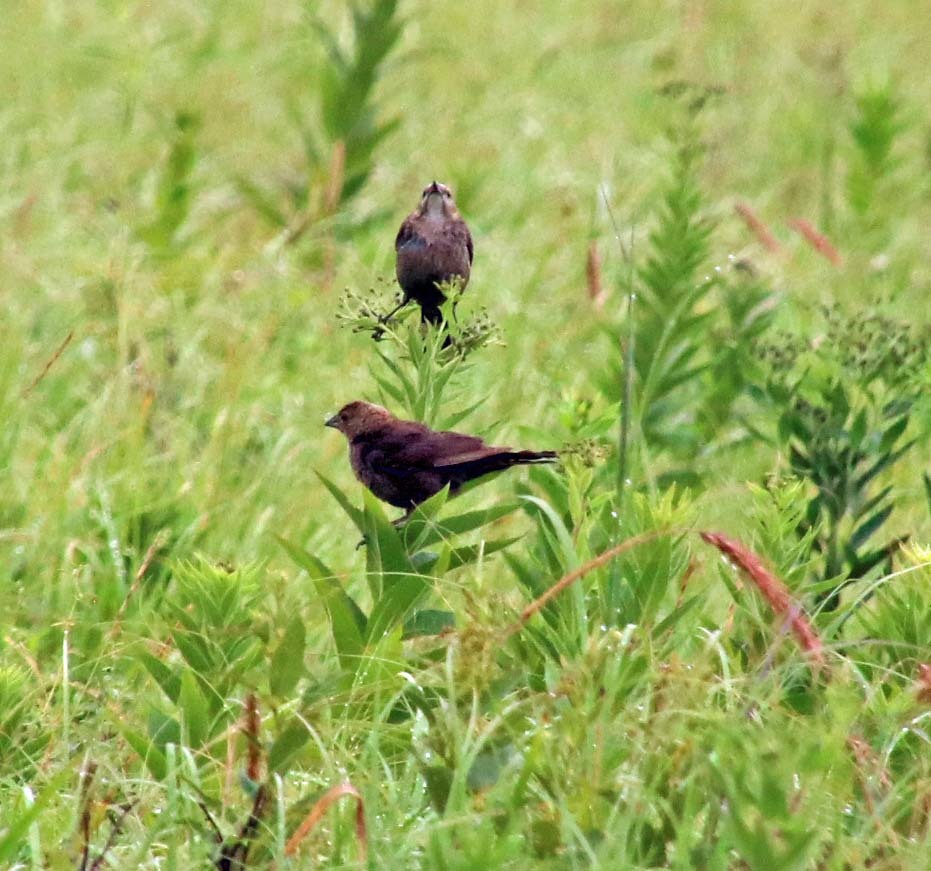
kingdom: Animalia
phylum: Chordata
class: Aves
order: Passeriformes
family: Icteridae
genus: Molothrus
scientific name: Molothrus ater
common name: Brown-headed cowbird
